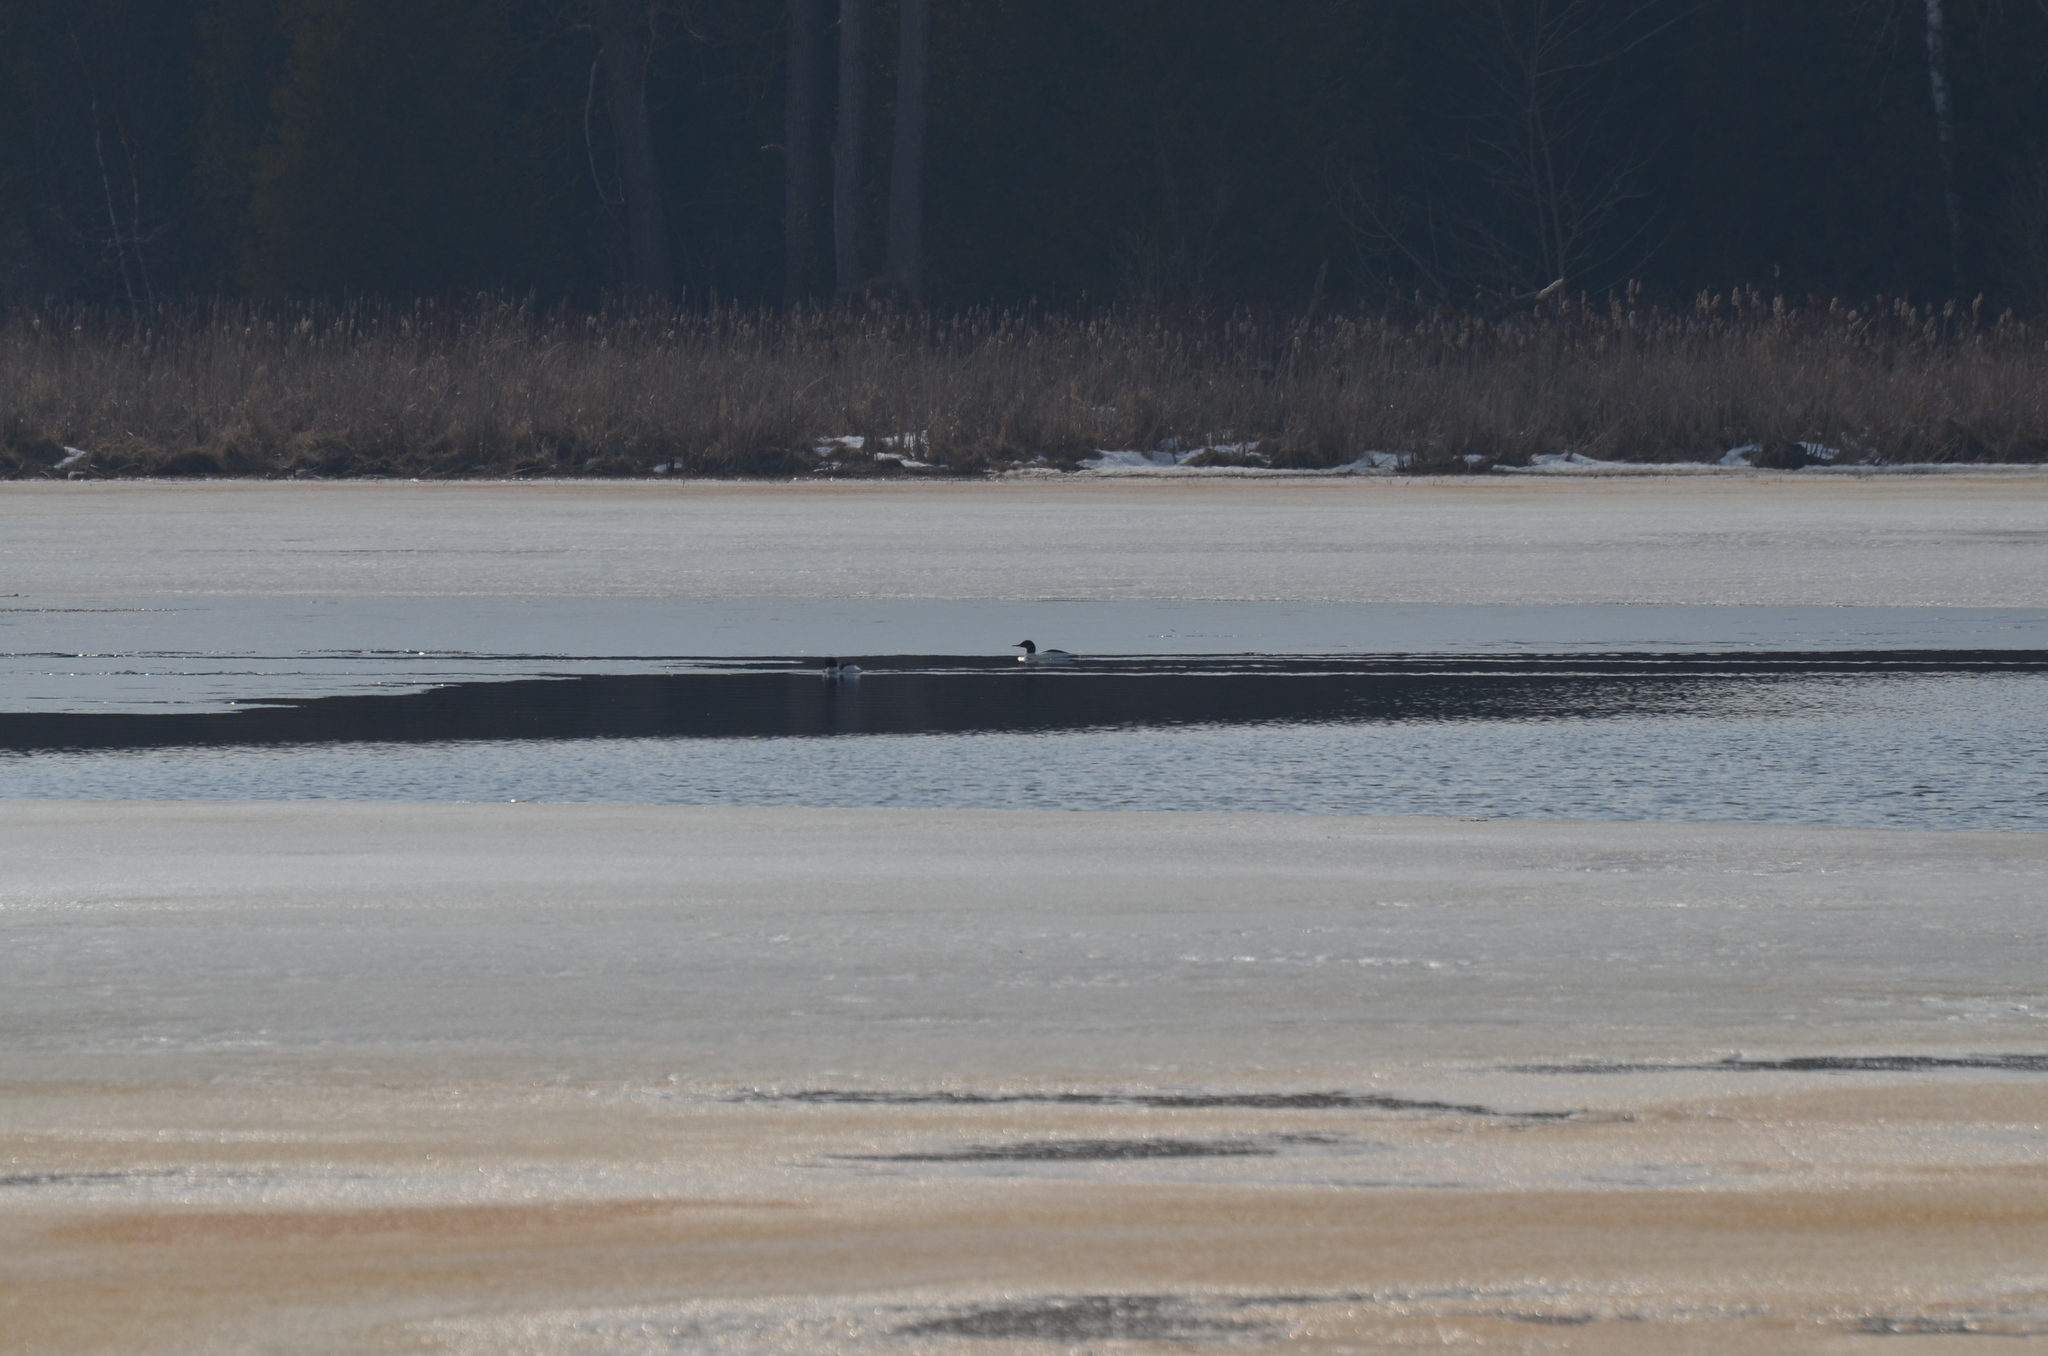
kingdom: Animalia
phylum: Chordata
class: Aves
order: Anseriformes
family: Anatidae
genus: Mergus
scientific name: Mergus merganser
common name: Common merganser
